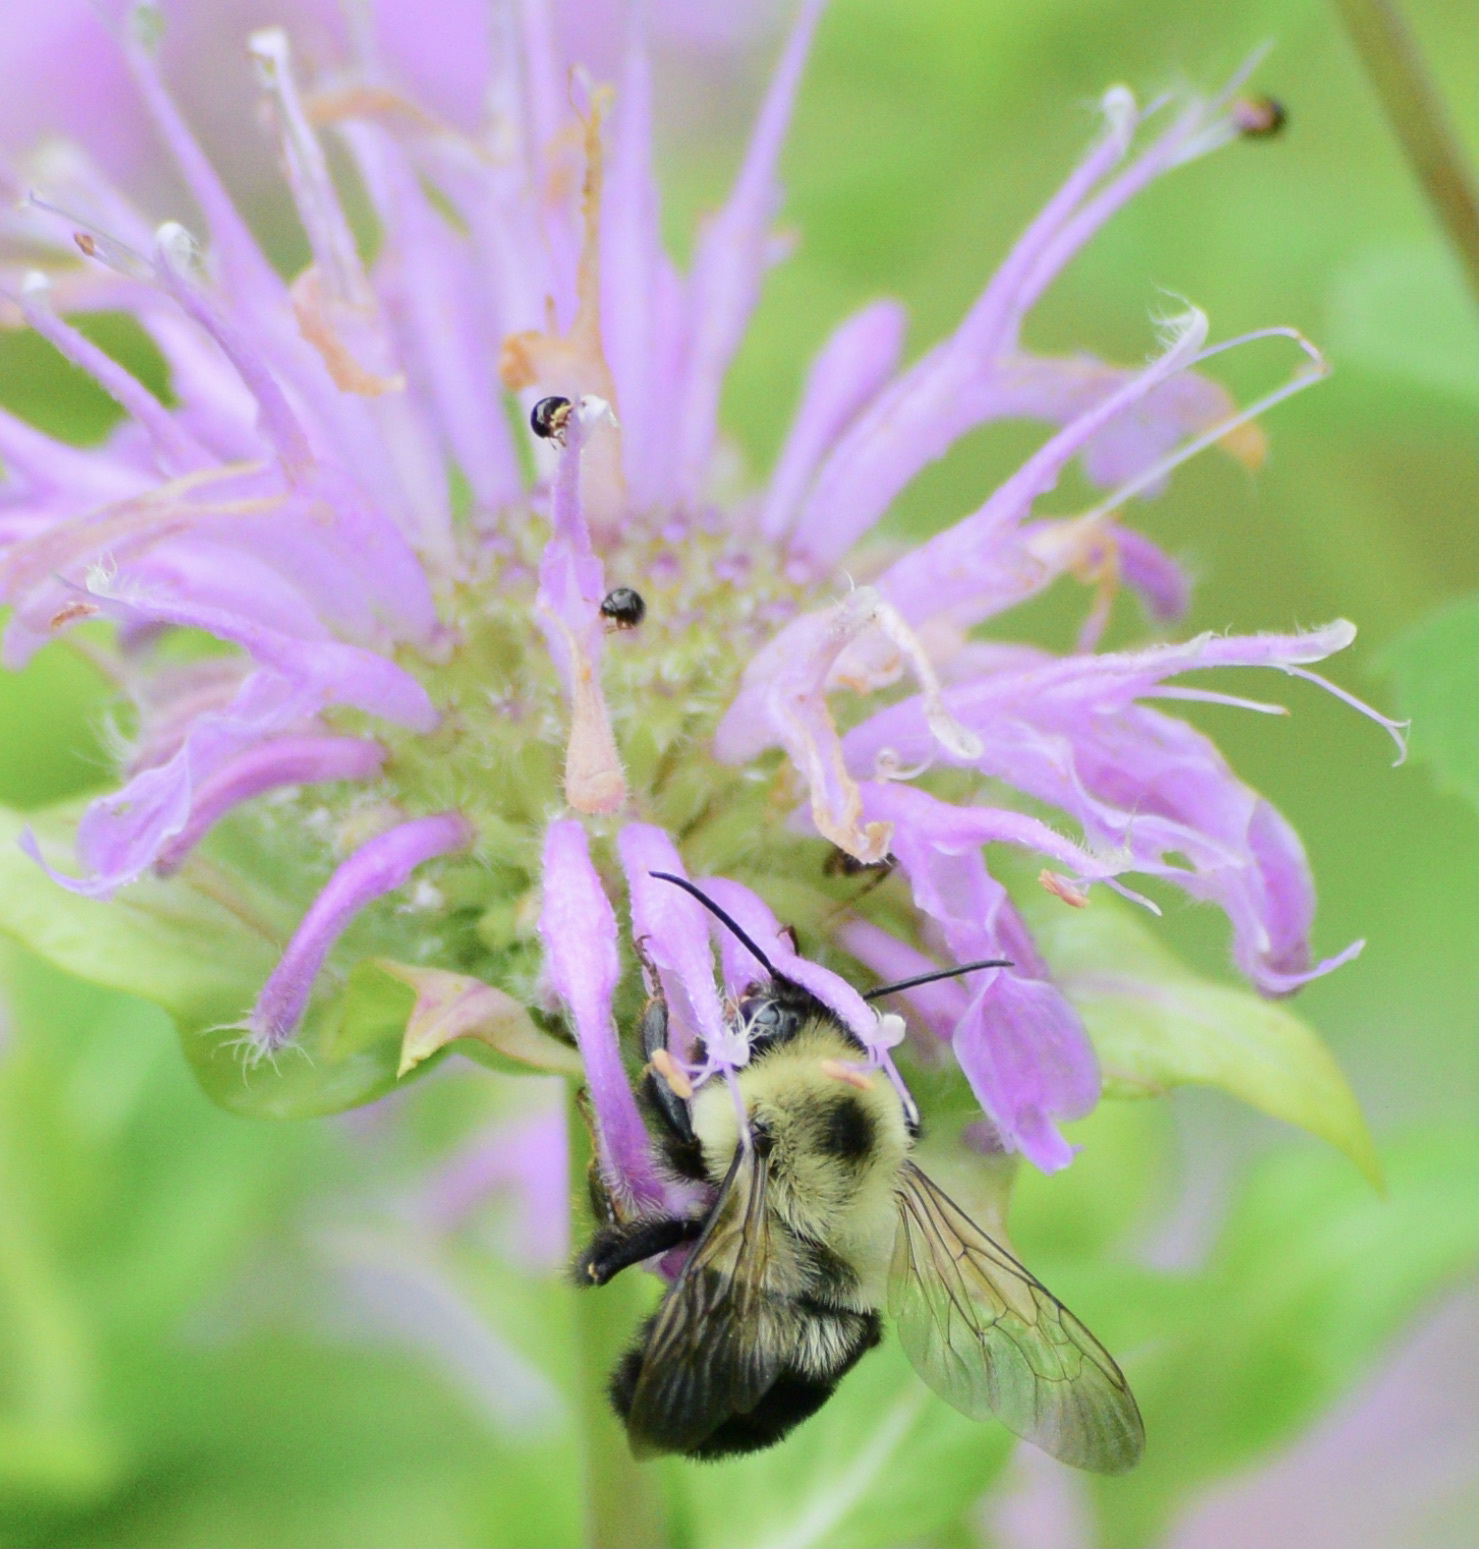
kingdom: Animalia
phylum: Arthropoda
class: Insecta
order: Hymenoptera
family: Apidae
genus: Bombus
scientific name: Bombus bimaculatus
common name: Two-spotted bumble bee
